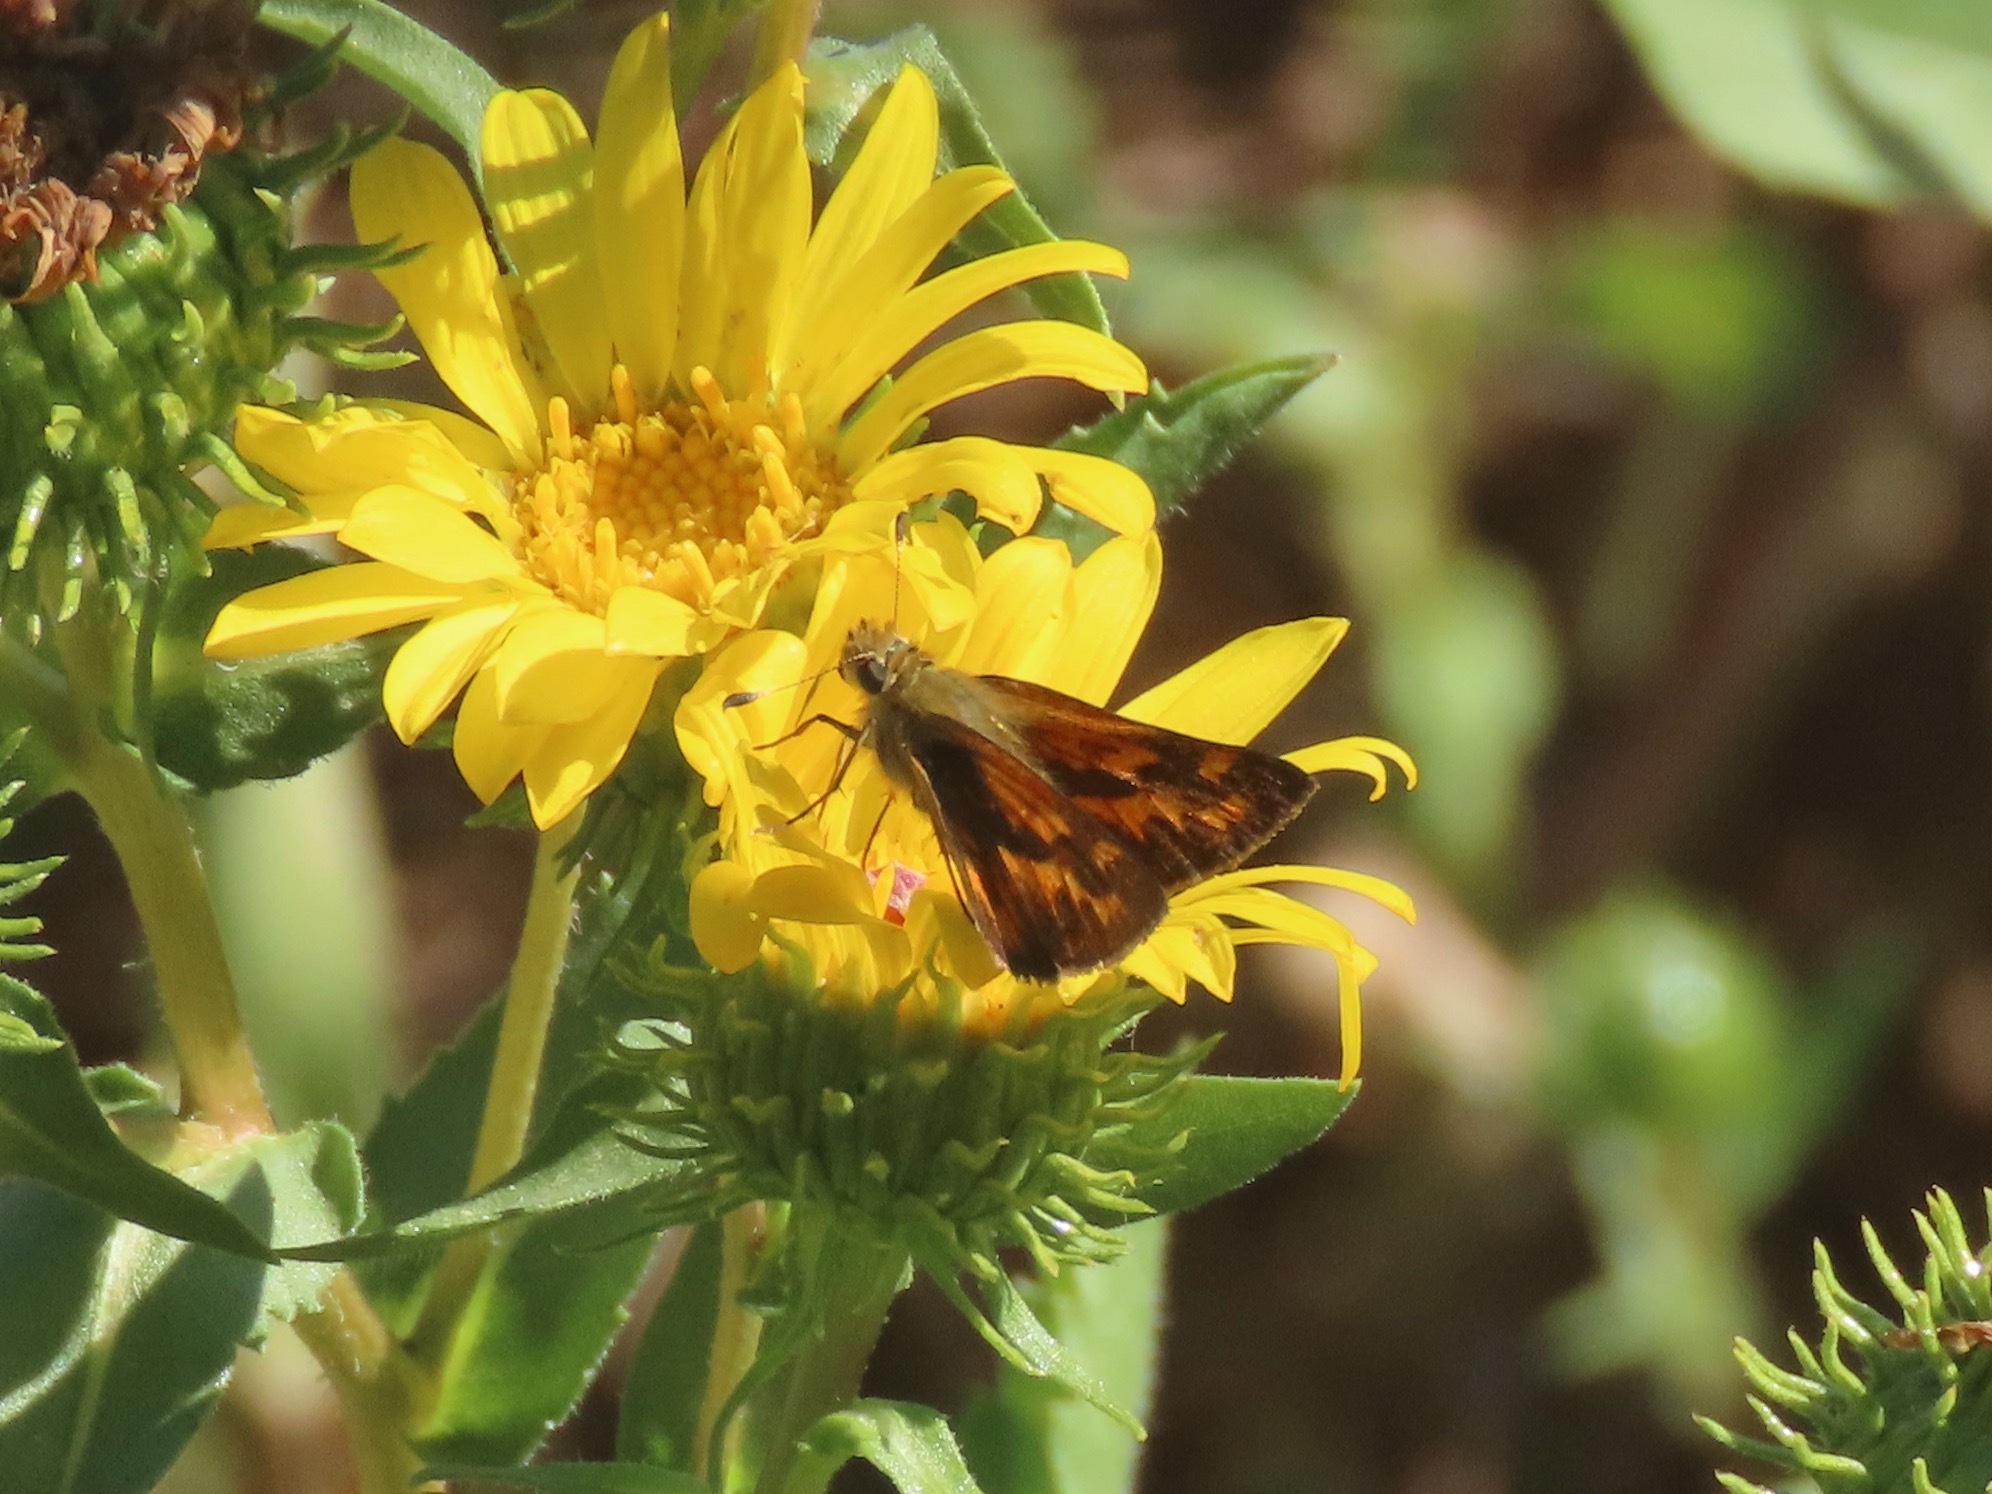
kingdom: Animalia
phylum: Arthropoda
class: Insecta
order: Lepidoptera
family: Hesperiidae
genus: Ochlodes
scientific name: Ochlodes sylvanoides
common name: Woodland skipper
